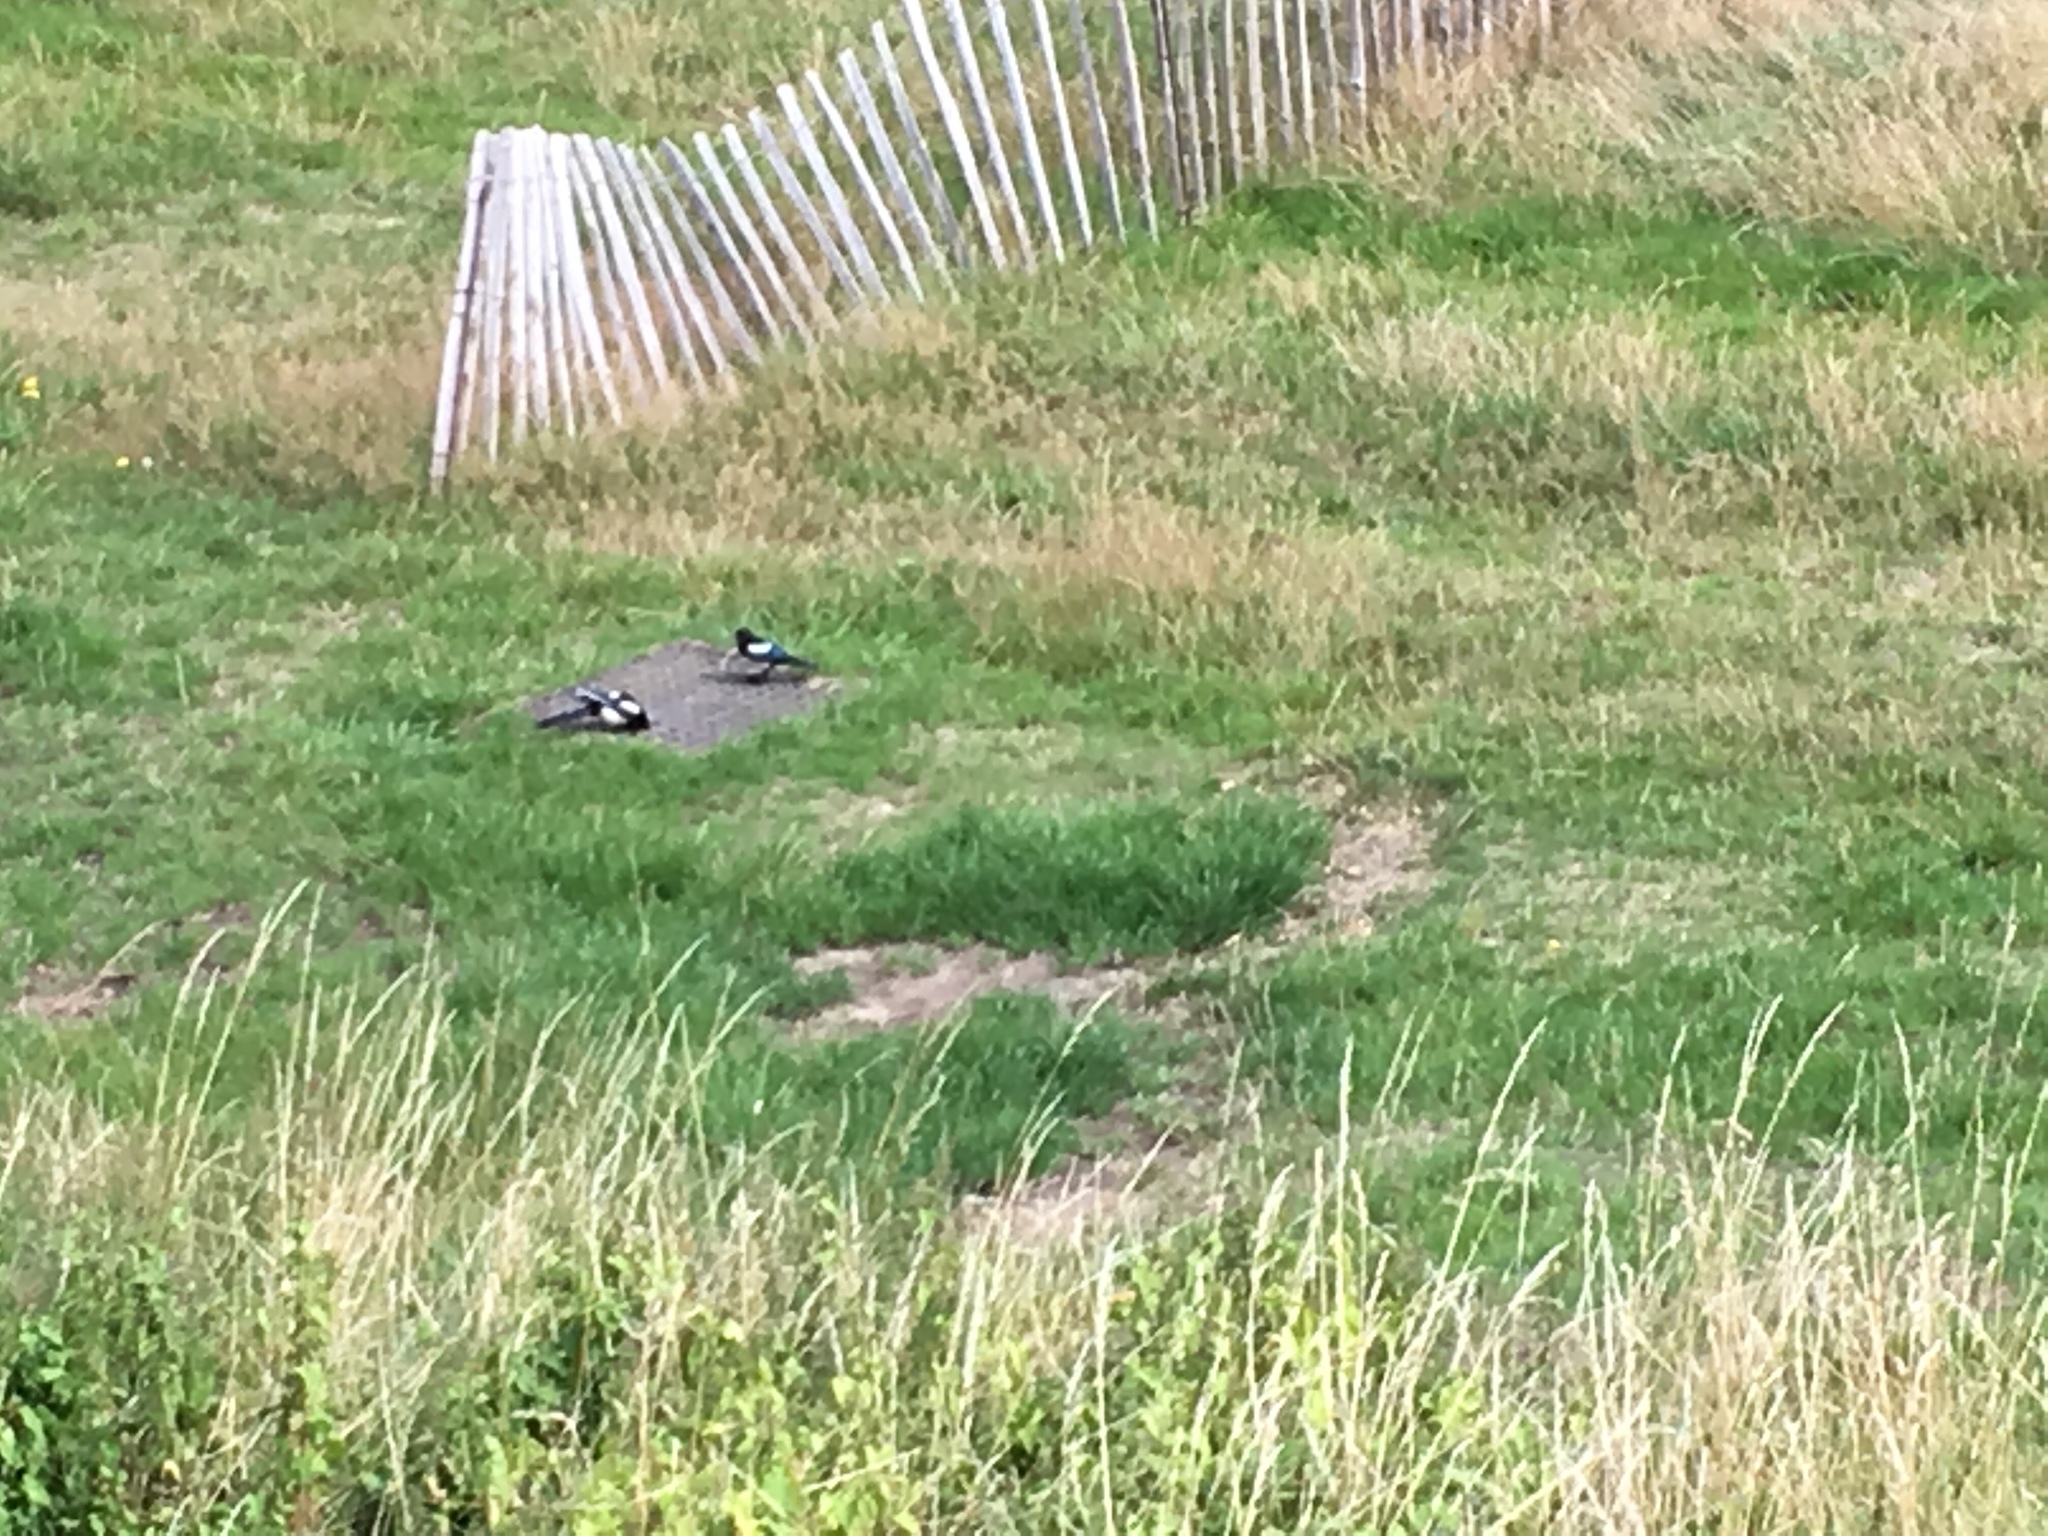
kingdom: Animalia
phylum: Chordata
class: Aves
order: Passeriformes
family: Corvidae
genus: Pica
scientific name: Pica pica
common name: Eurasian magpie
